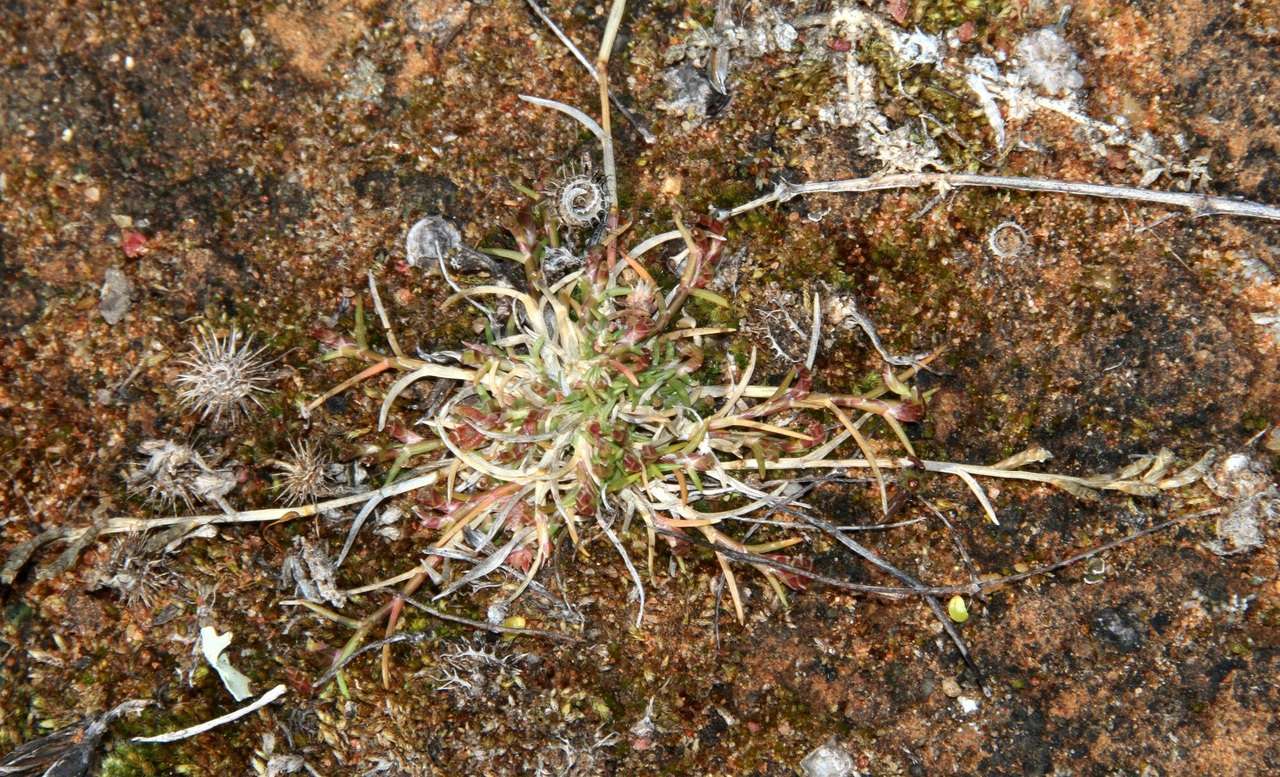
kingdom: Plantae
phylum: Tracheophyta
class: Liliopsida
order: Poales
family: Poaceae
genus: Eragrostis
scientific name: Eragrostis dielsii
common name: Lovegrass
